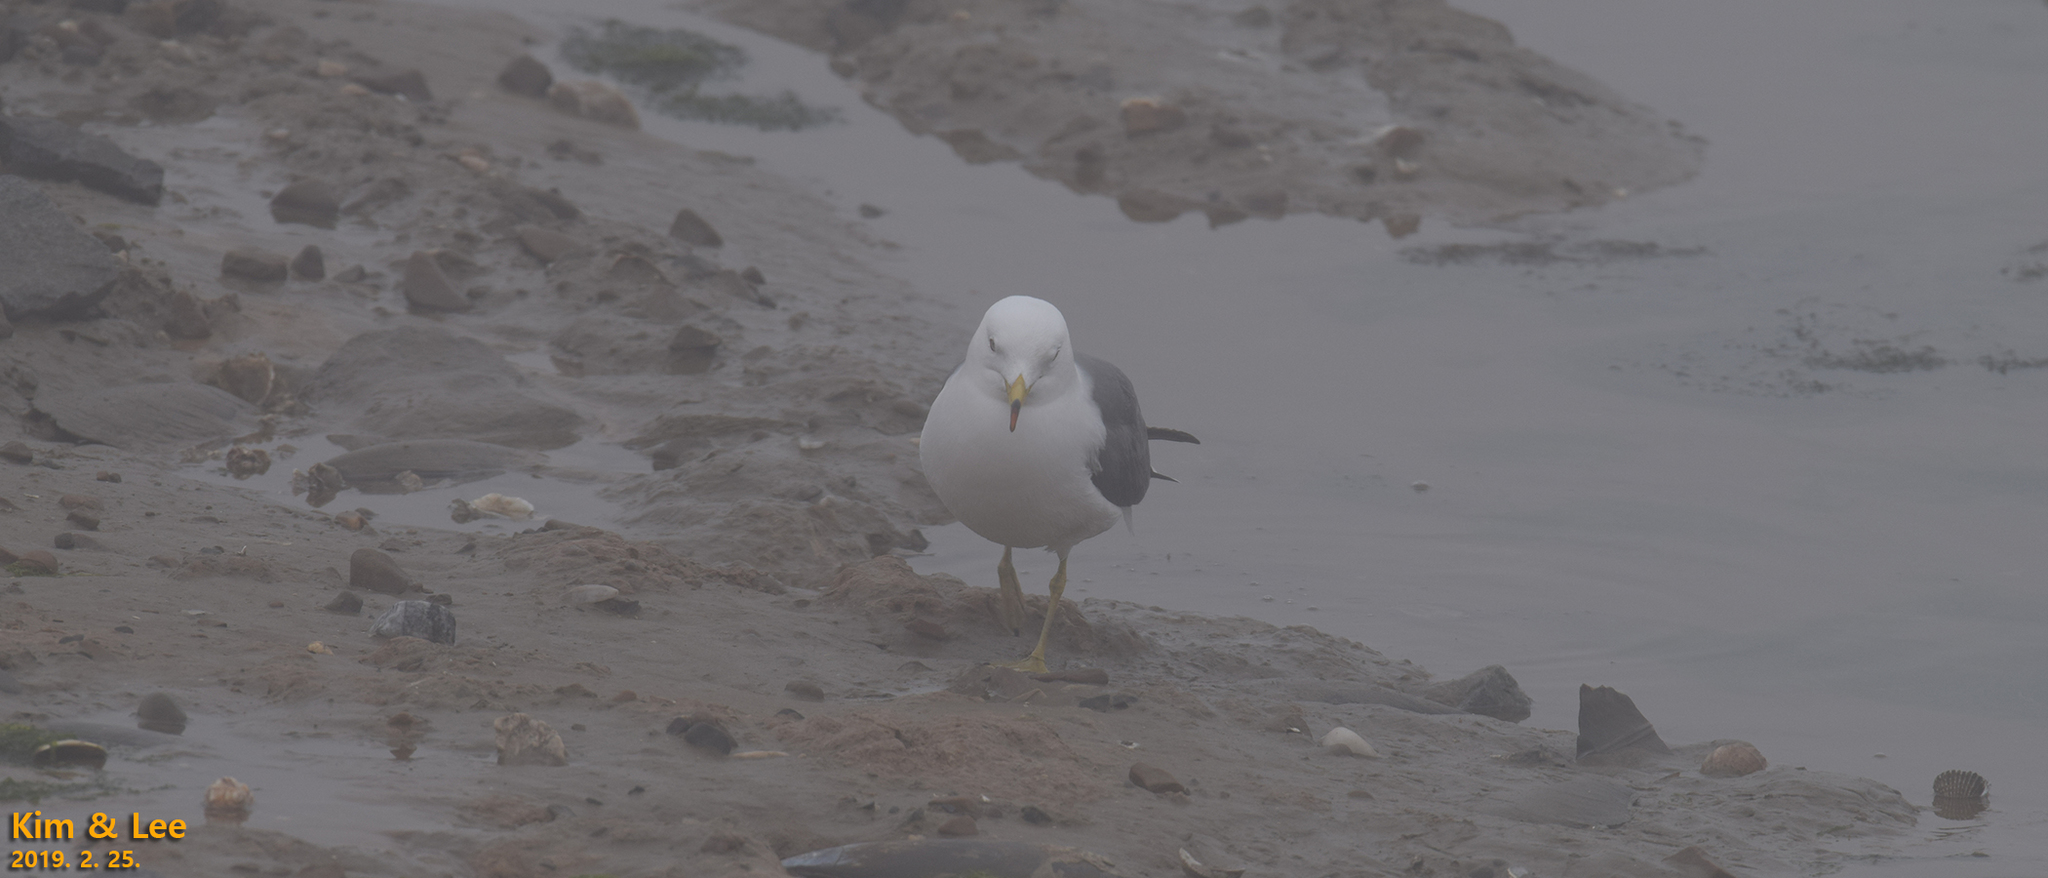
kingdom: Animalia
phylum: Chordata
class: Aves
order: Charadriiformes
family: Laridae
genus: Larus
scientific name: Larus crassirostris
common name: Black-tailed gull
